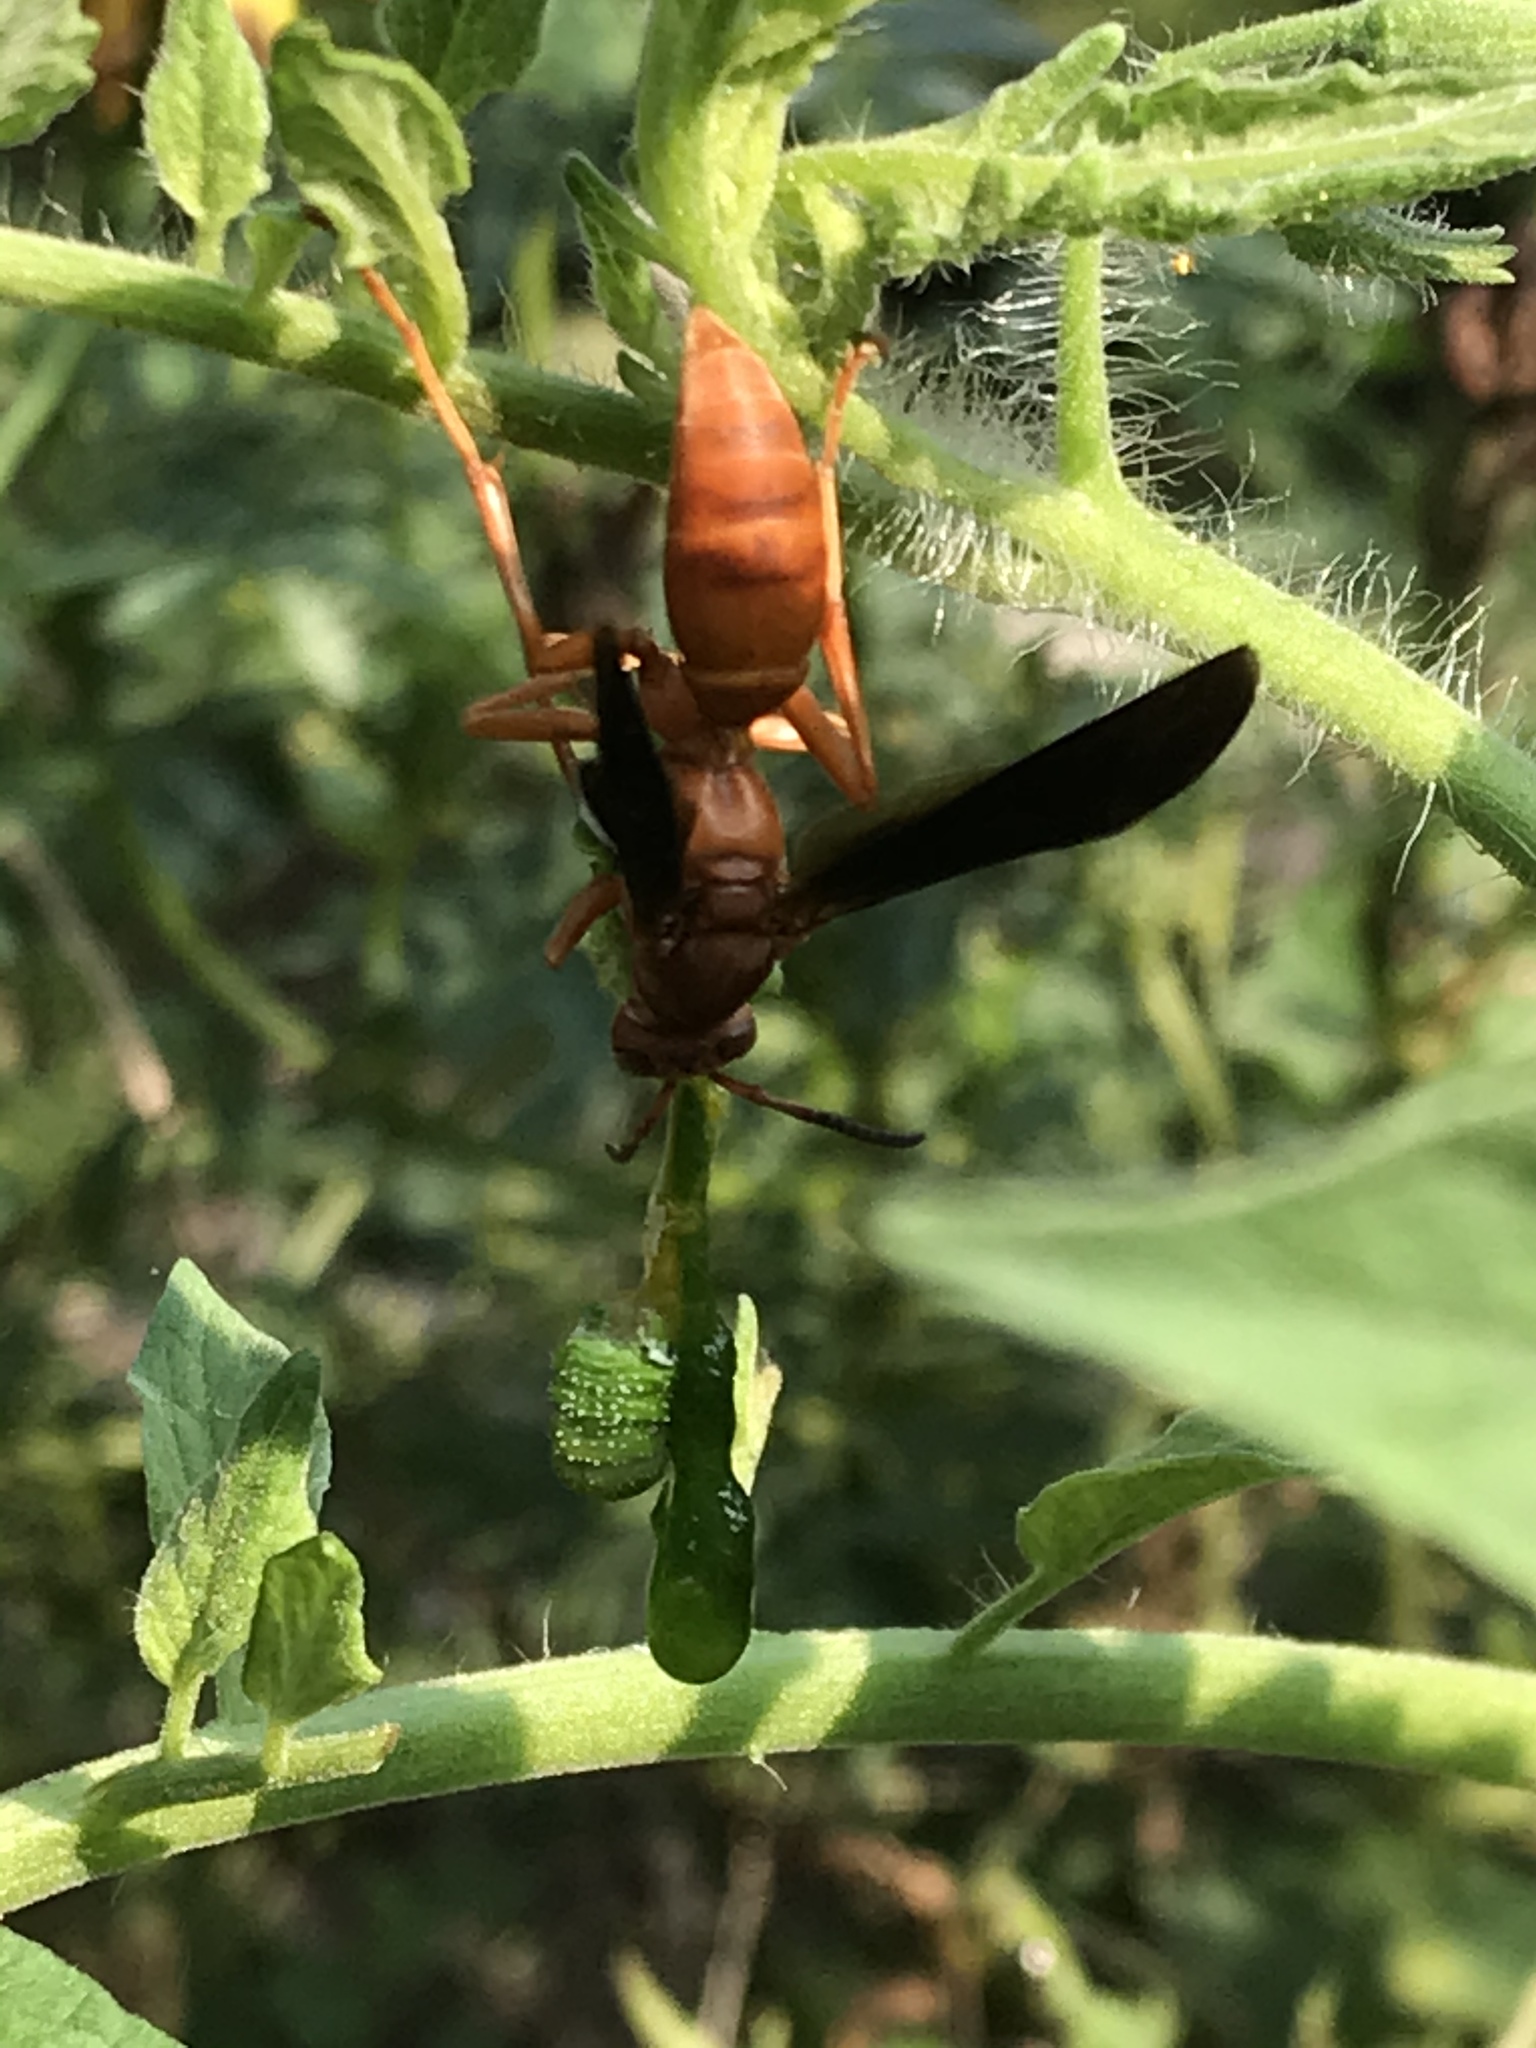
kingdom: Animalia
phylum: Arthropoda
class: Insecta
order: Hymenoptera
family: Eumenidae
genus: Polistes
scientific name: Polistes carolina
